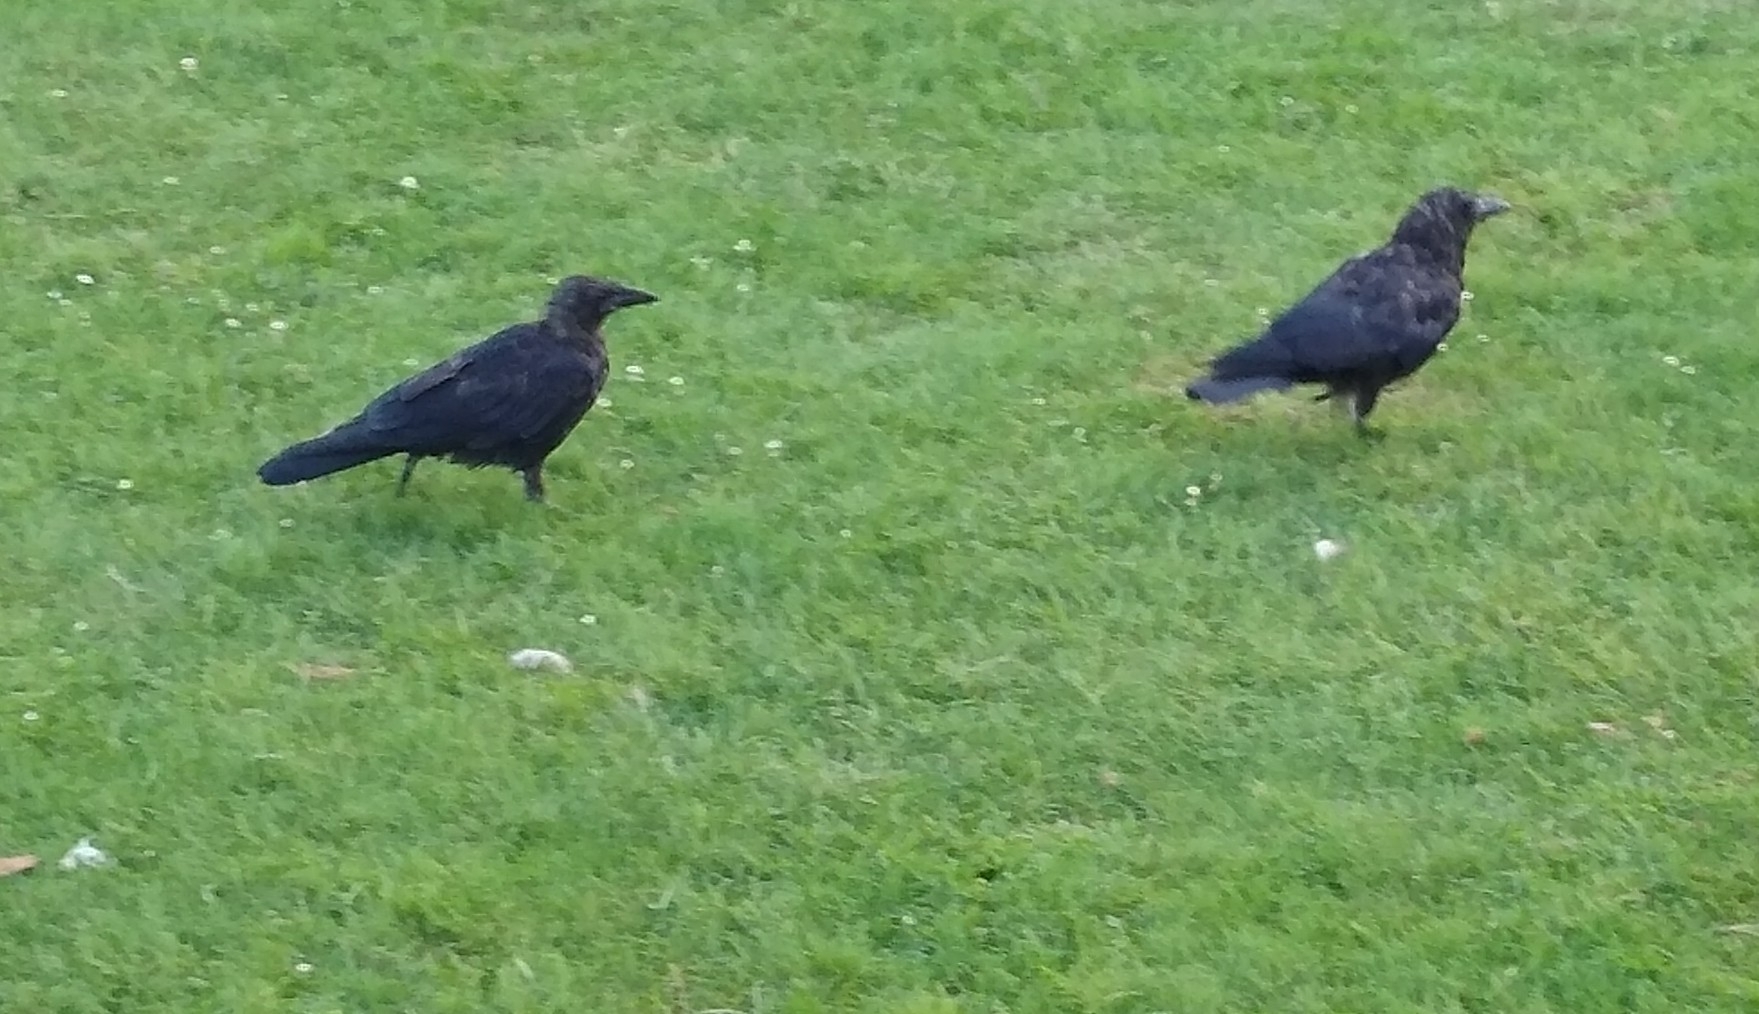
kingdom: Animalia
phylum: Chordata
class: Aves
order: Passeriformes
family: Corvidae
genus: Corvus
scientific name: Corvus brachyrhynchos
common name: American crow
